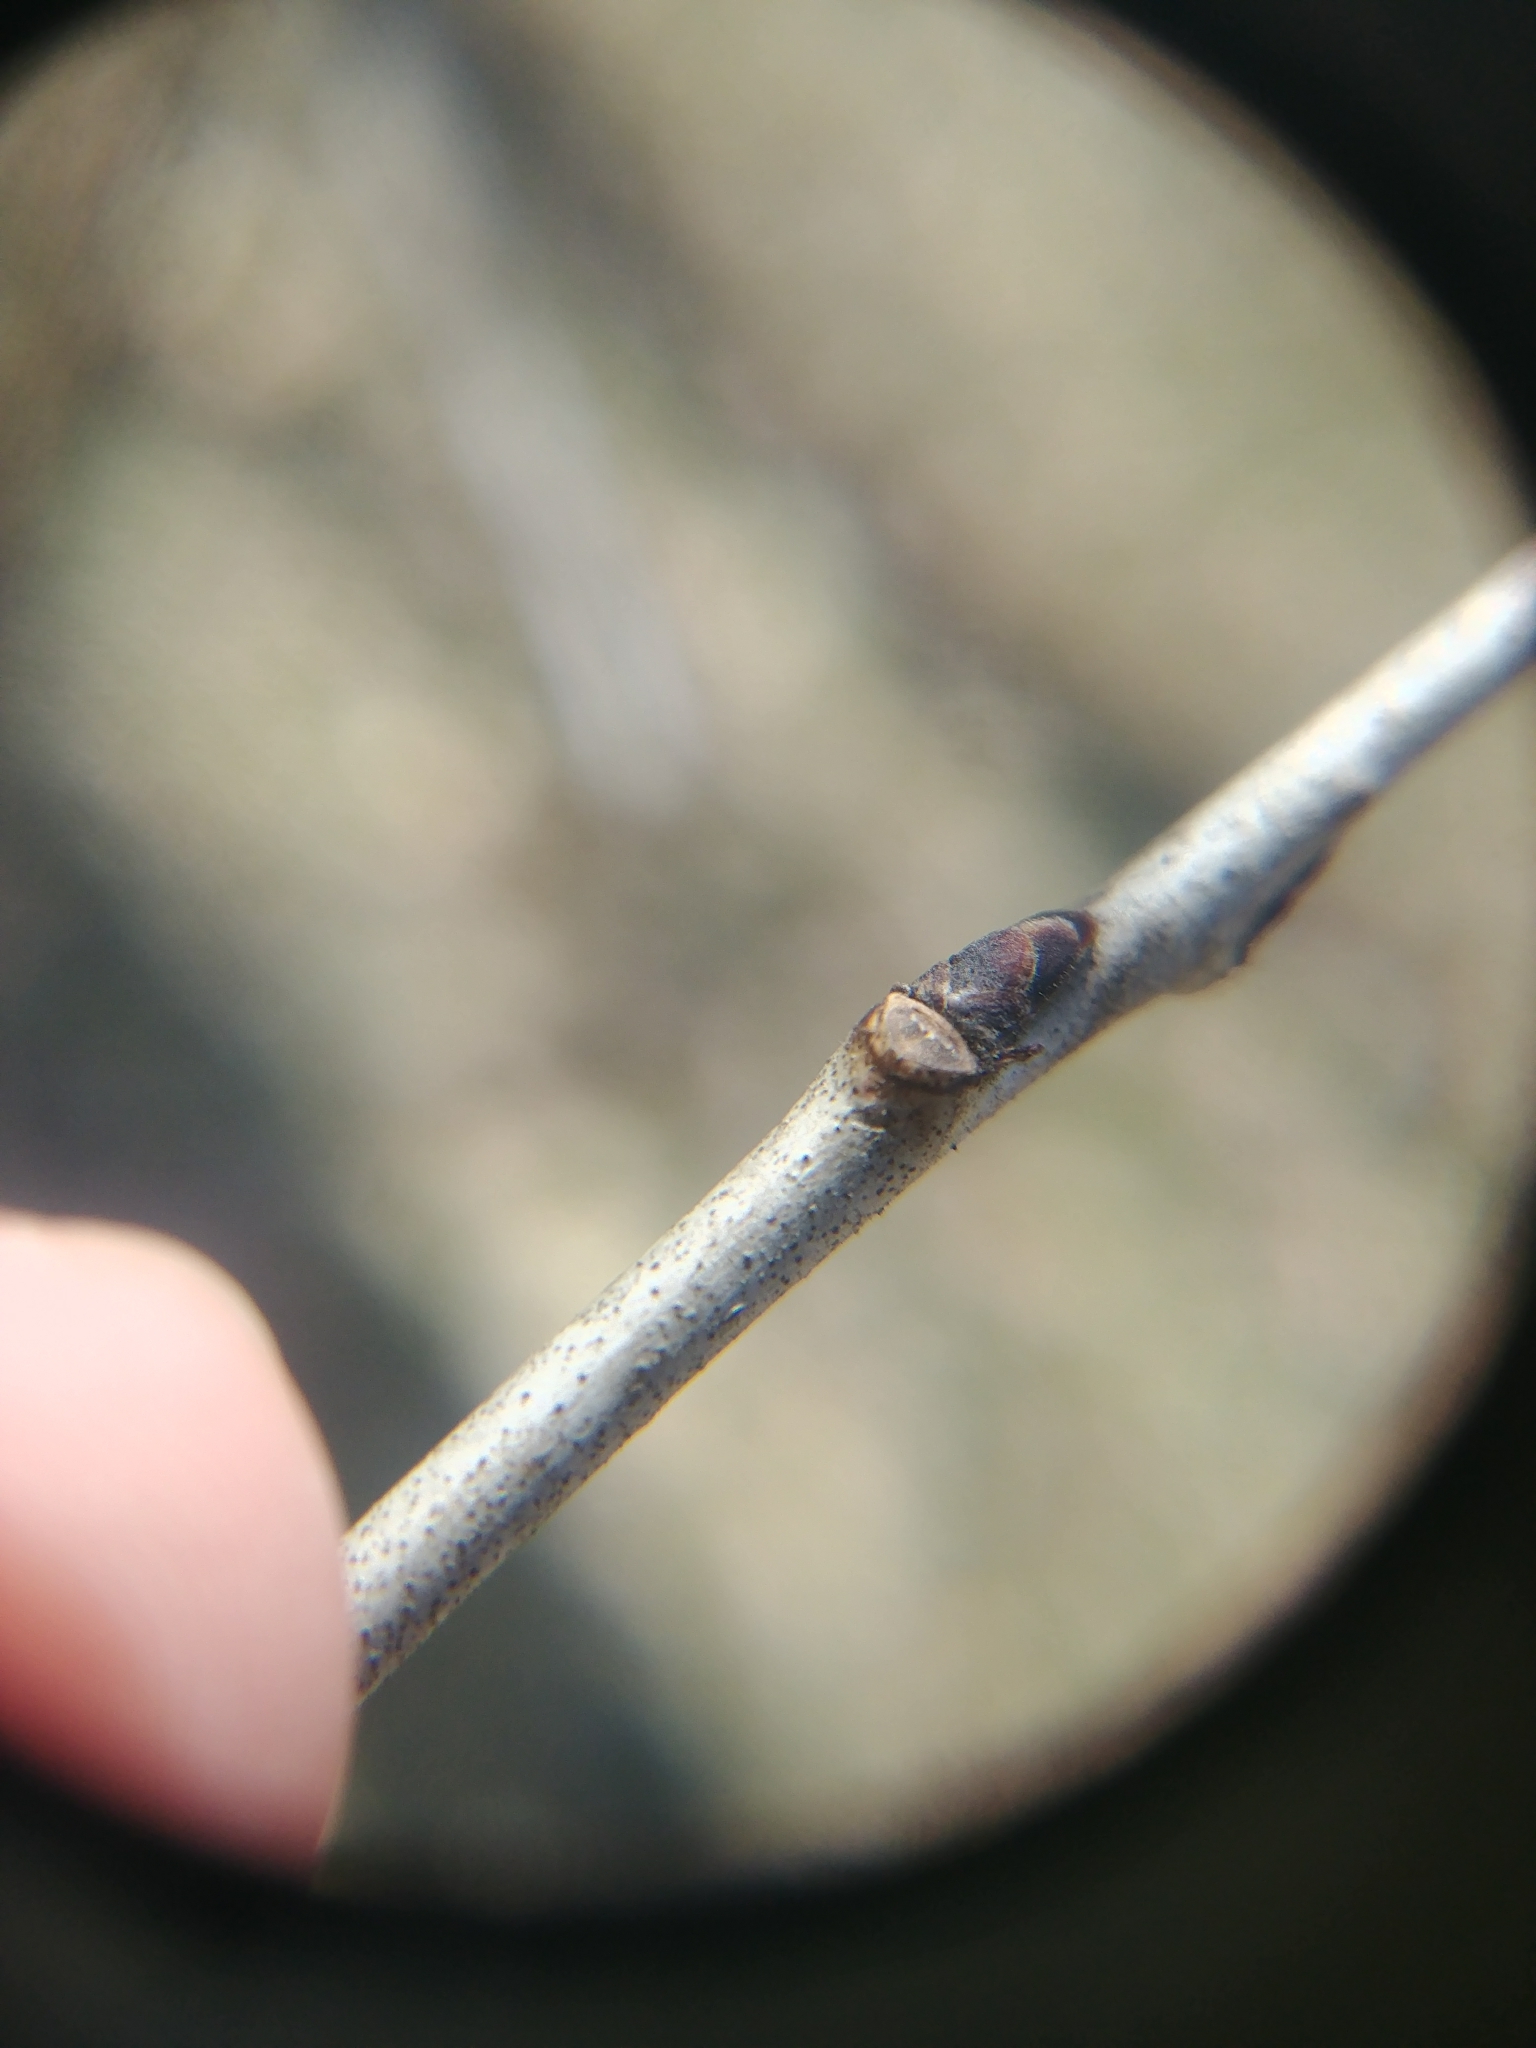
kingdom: Plantae
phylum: Tracheophyta
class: Magnoliopsida
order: Rosales
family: Rhamnaceae
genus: Rhamnus
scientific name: Rhamnus cathartica
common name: Common buckthorn
